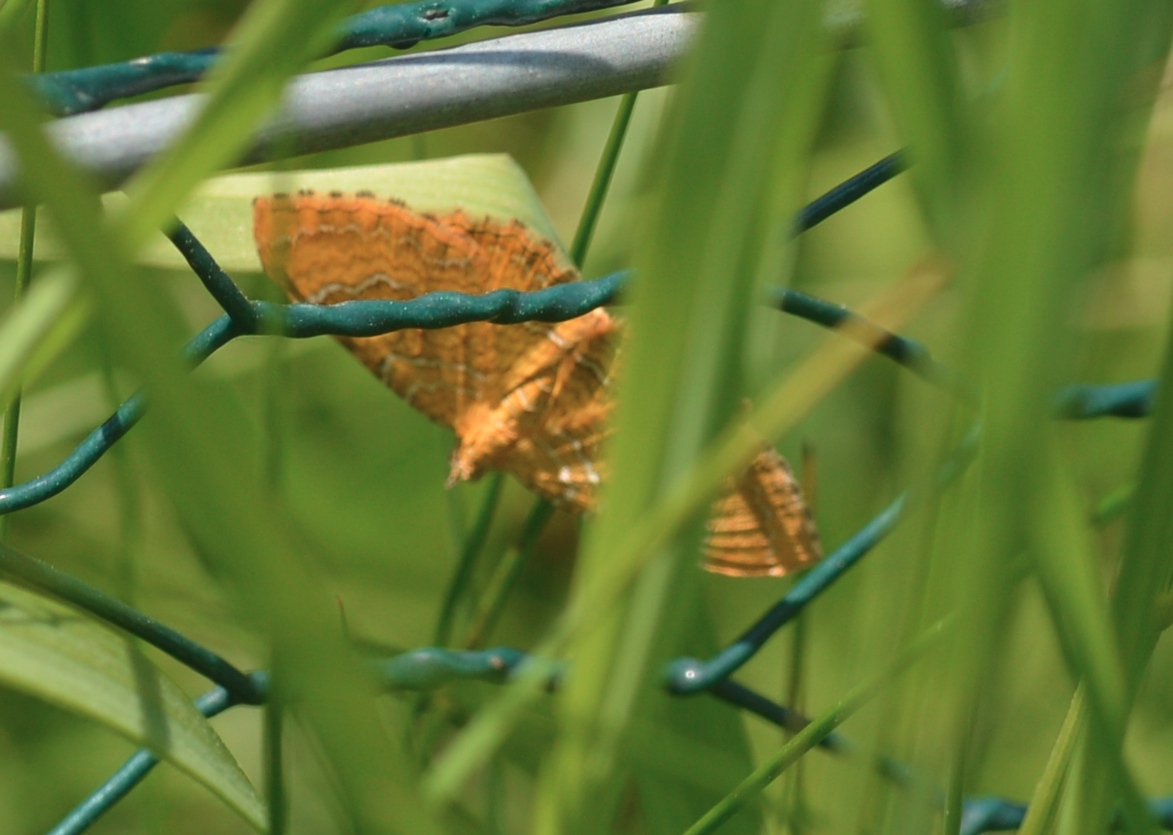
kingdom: Animalia
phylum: Arthropoda
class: Insecta
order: Lepidoptera
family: Geometridae
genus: Camptogramma
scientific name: Camptogramma bilineata
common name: Yellow shell
